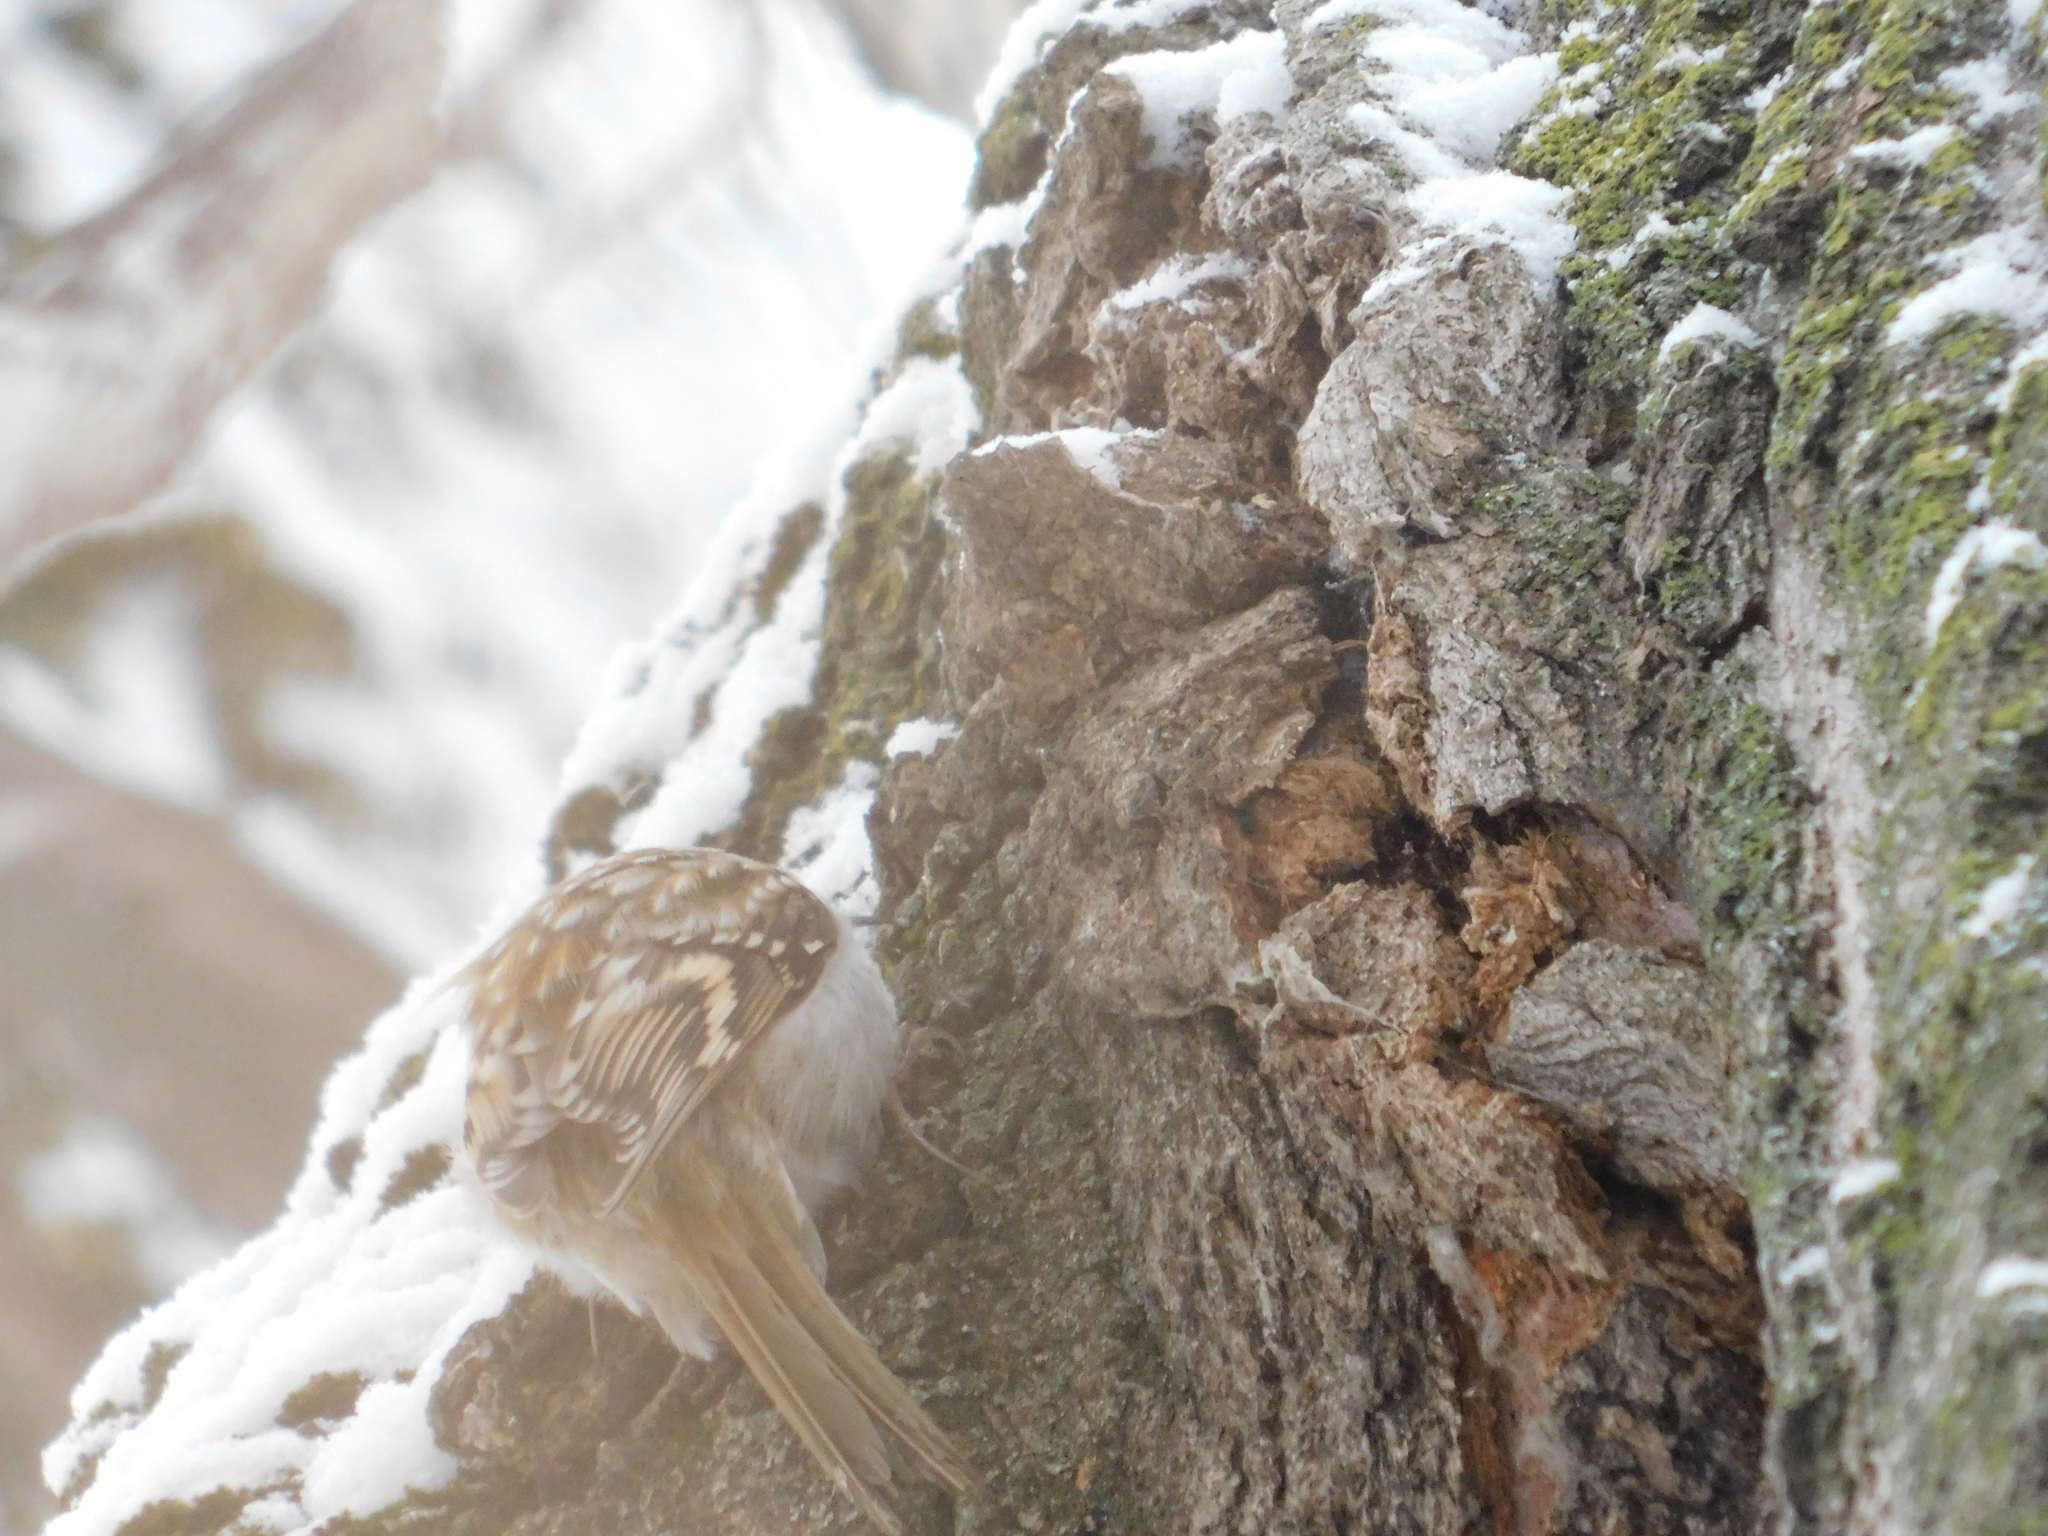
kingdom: Animalia
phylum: Chordata
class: Aves
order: Passeriformes
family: Certhiidae
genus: Certhia
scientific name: Certhia familiaris
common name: Eurasian treecreeper
